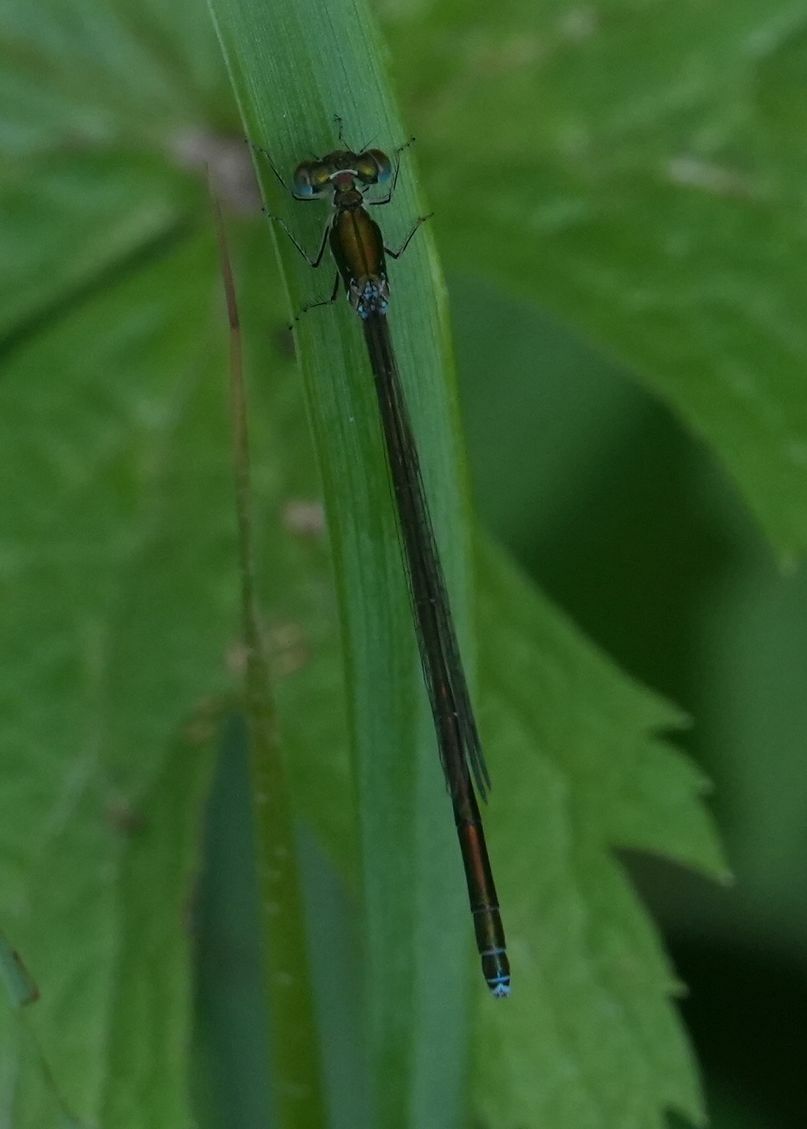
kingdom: Animalia
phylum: Arthropoda
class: Insecta
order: Odonata
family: Coenagrionidae
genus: Nehalennia
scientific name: Nehalennia irene
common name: Sedge sprite
